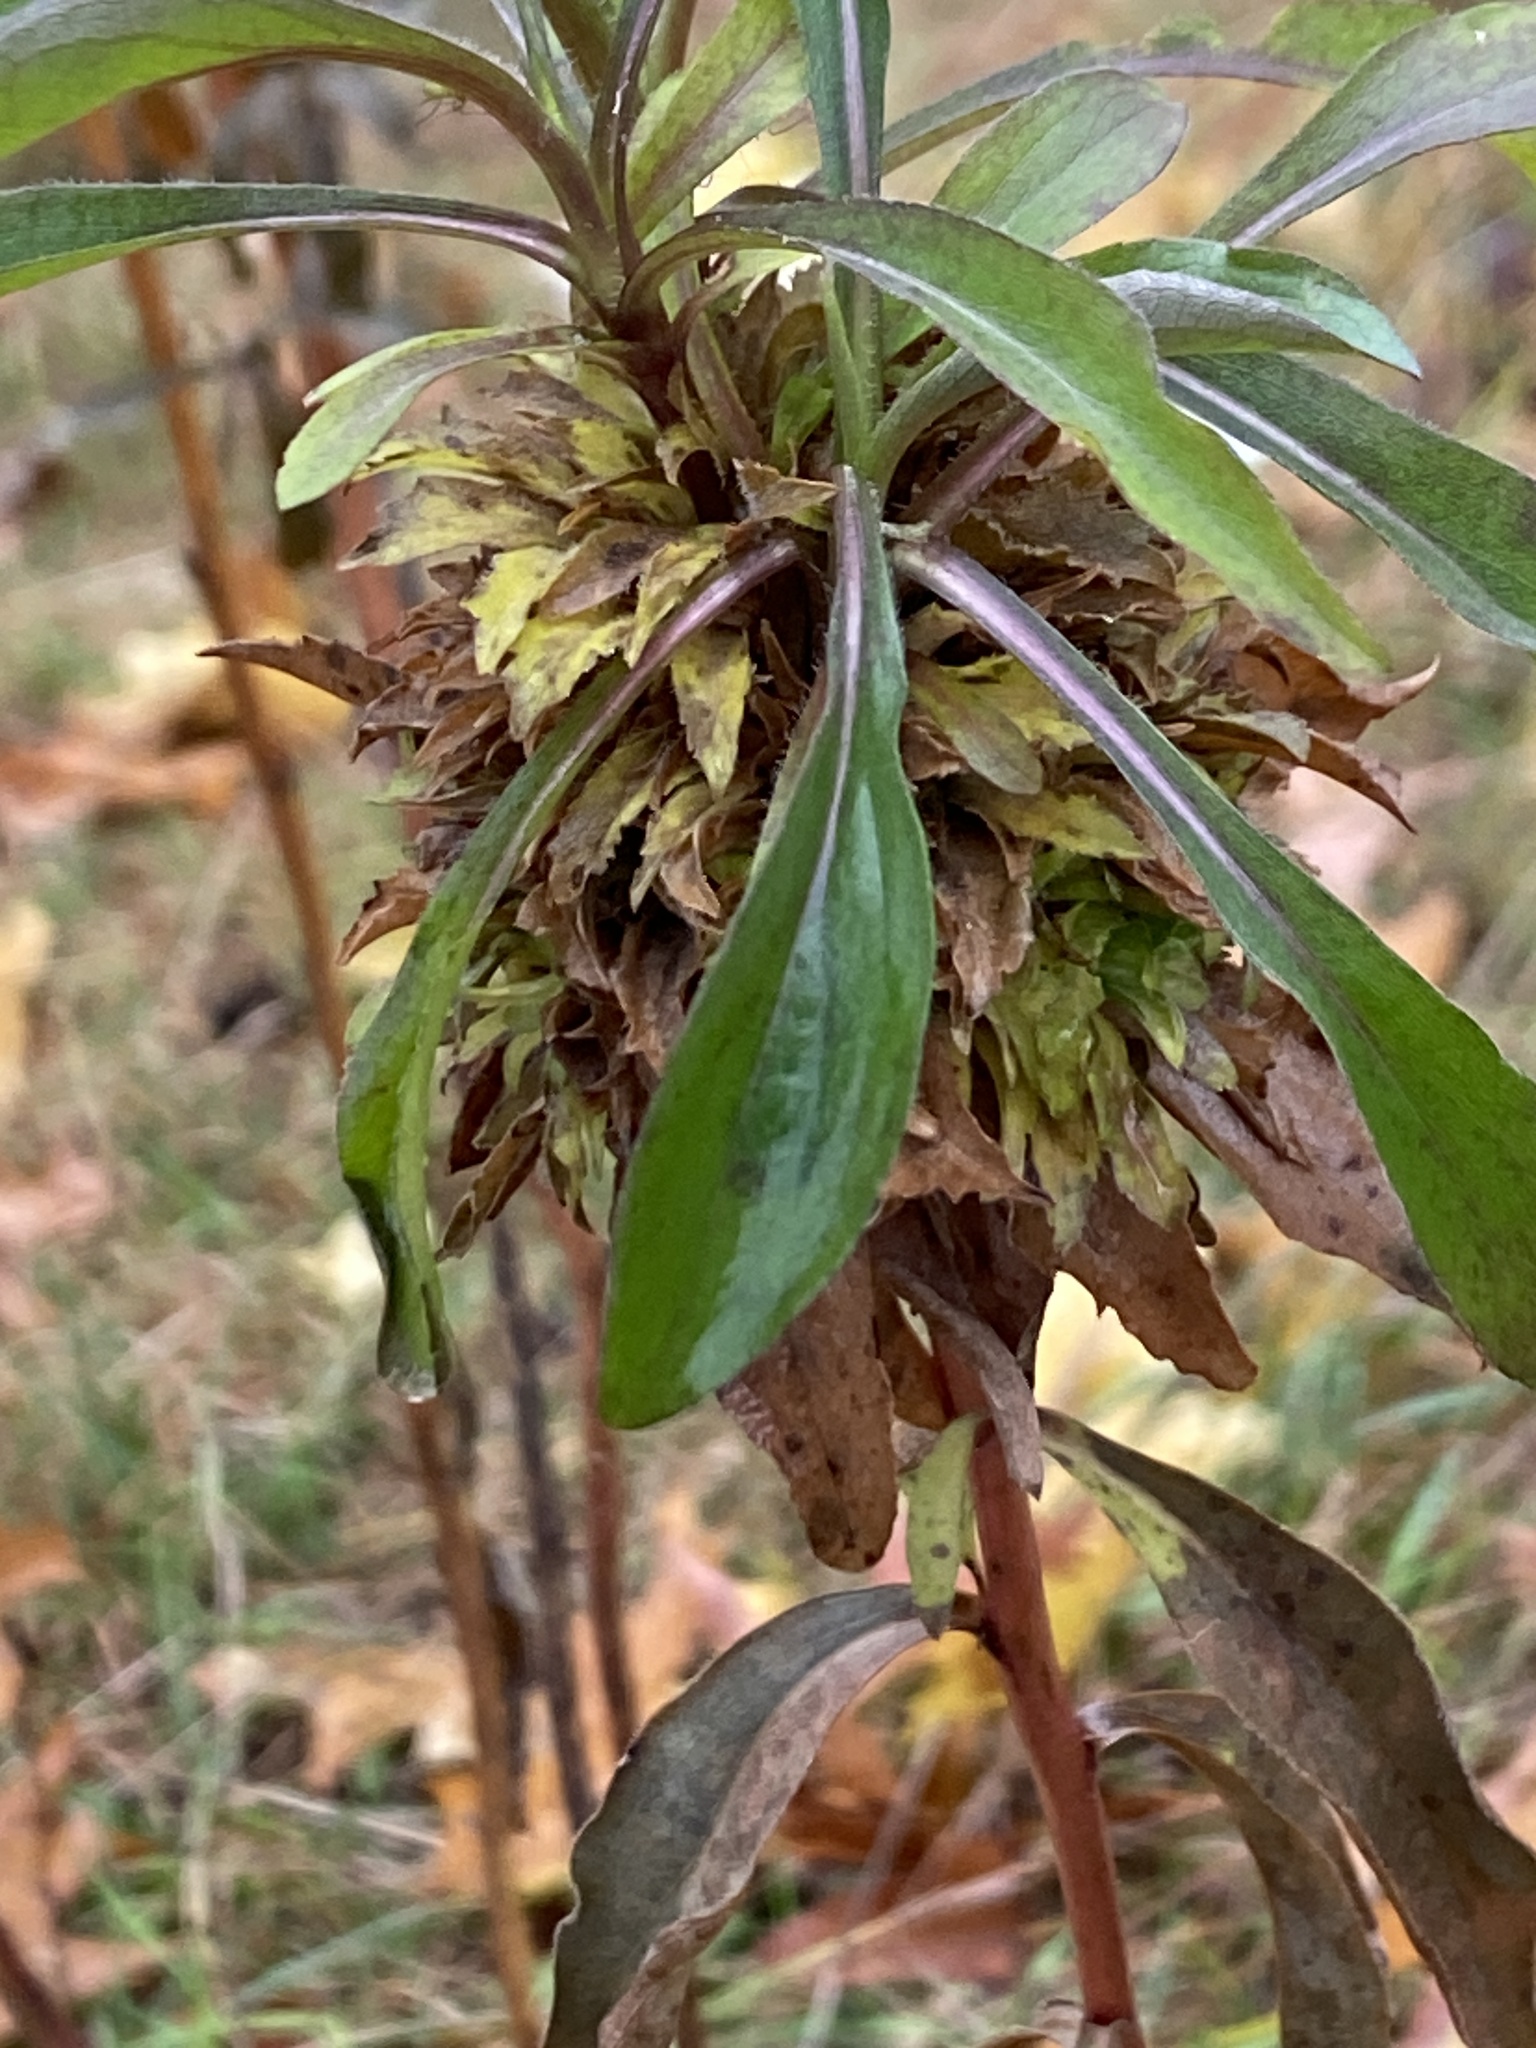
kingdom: Animalia
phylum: Arthropoda
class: Insecta
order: Diptera
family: Cecidomyiidae
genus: Asphondylia
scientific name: Asphondylia monacha
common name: Nun midge
